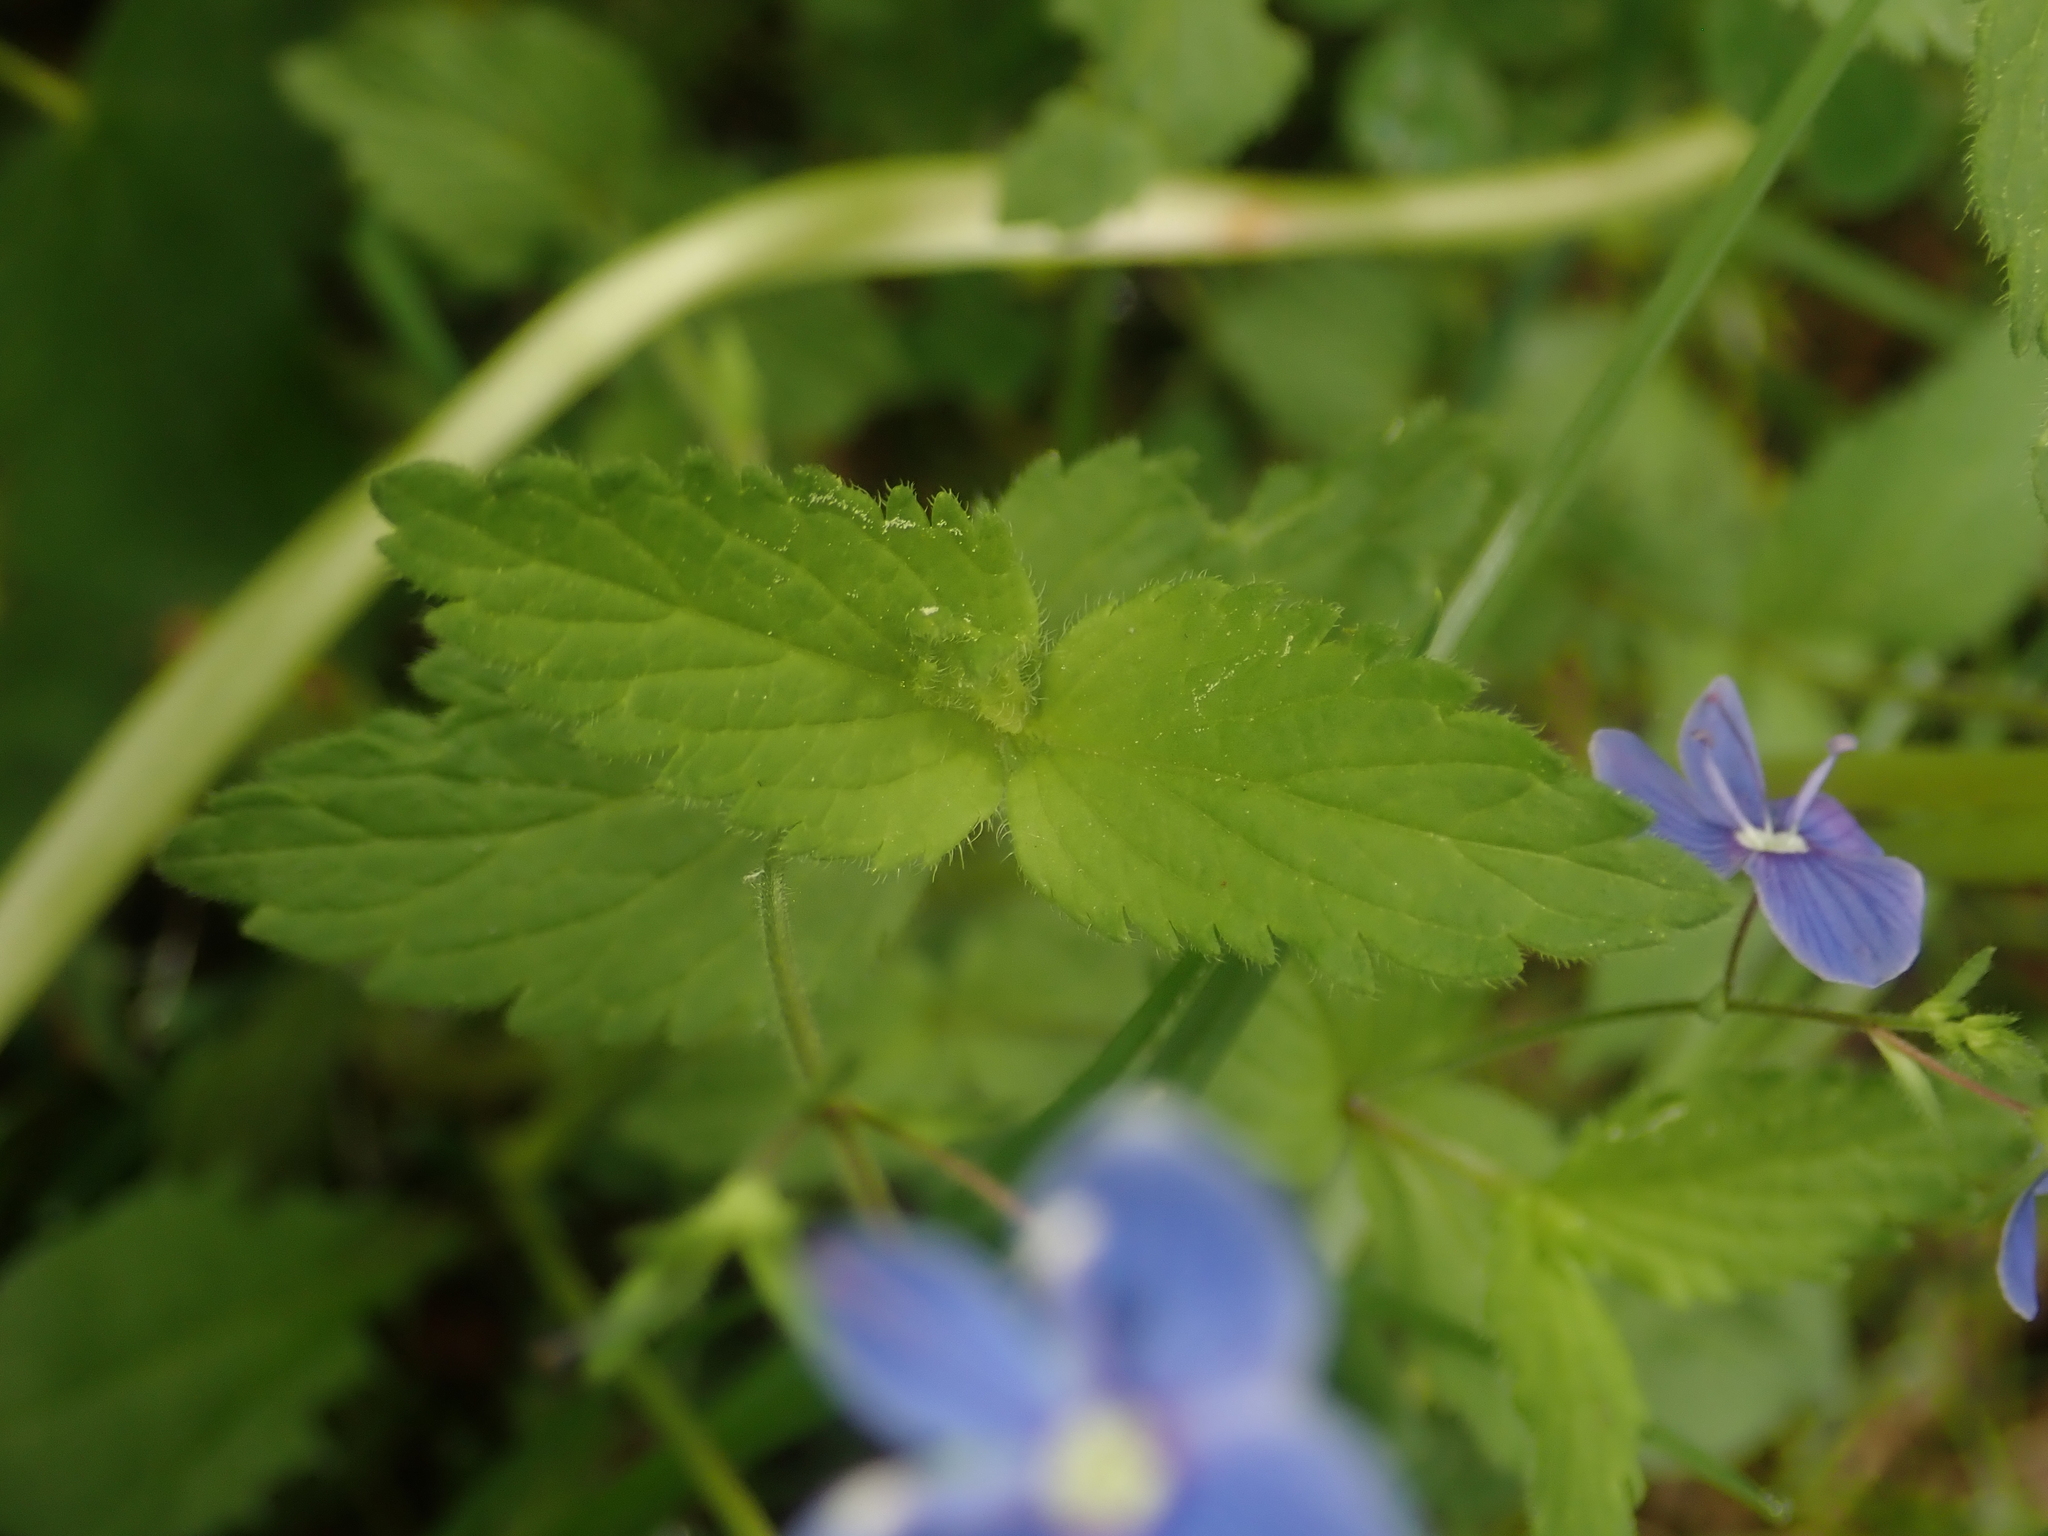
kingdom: Plantae
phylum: Tracheophyta
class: Magnoliopsida
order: Lamiales
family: Plantaginaceae
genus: Veronica
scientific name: Veronica chamaedrys
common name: Germander speedwell
